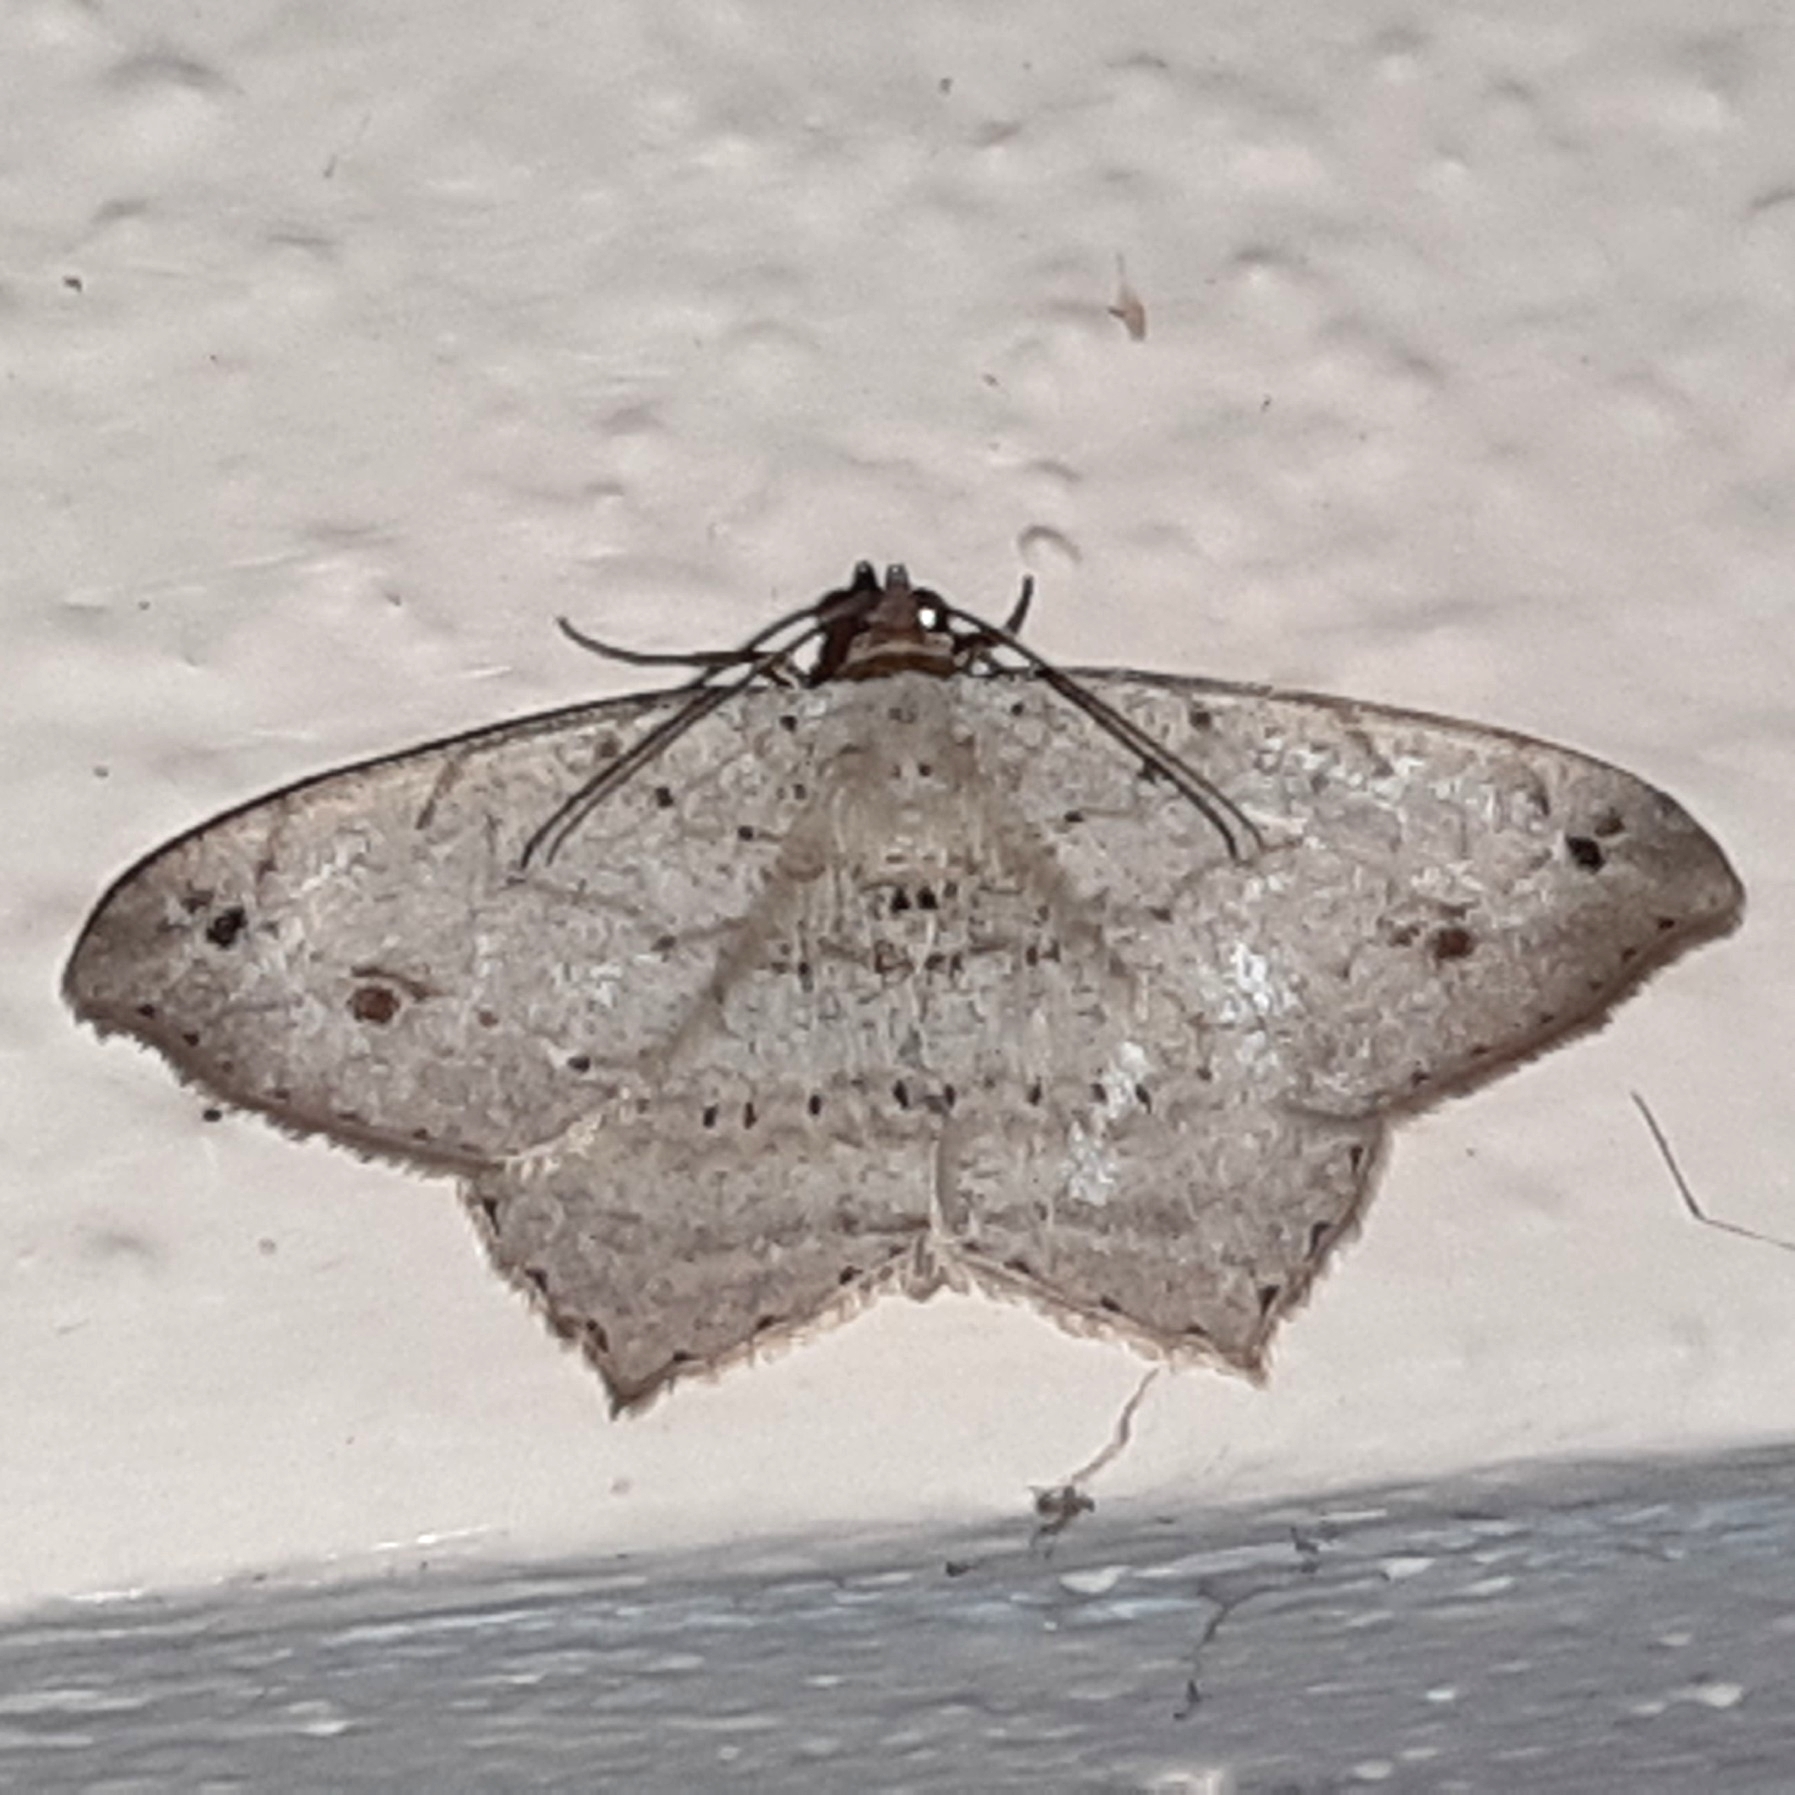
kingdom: Animalia
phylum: Arthropoda
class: Insecta
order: Lepidoptera
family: Geometridae
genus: Macaria
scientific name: Macaria
